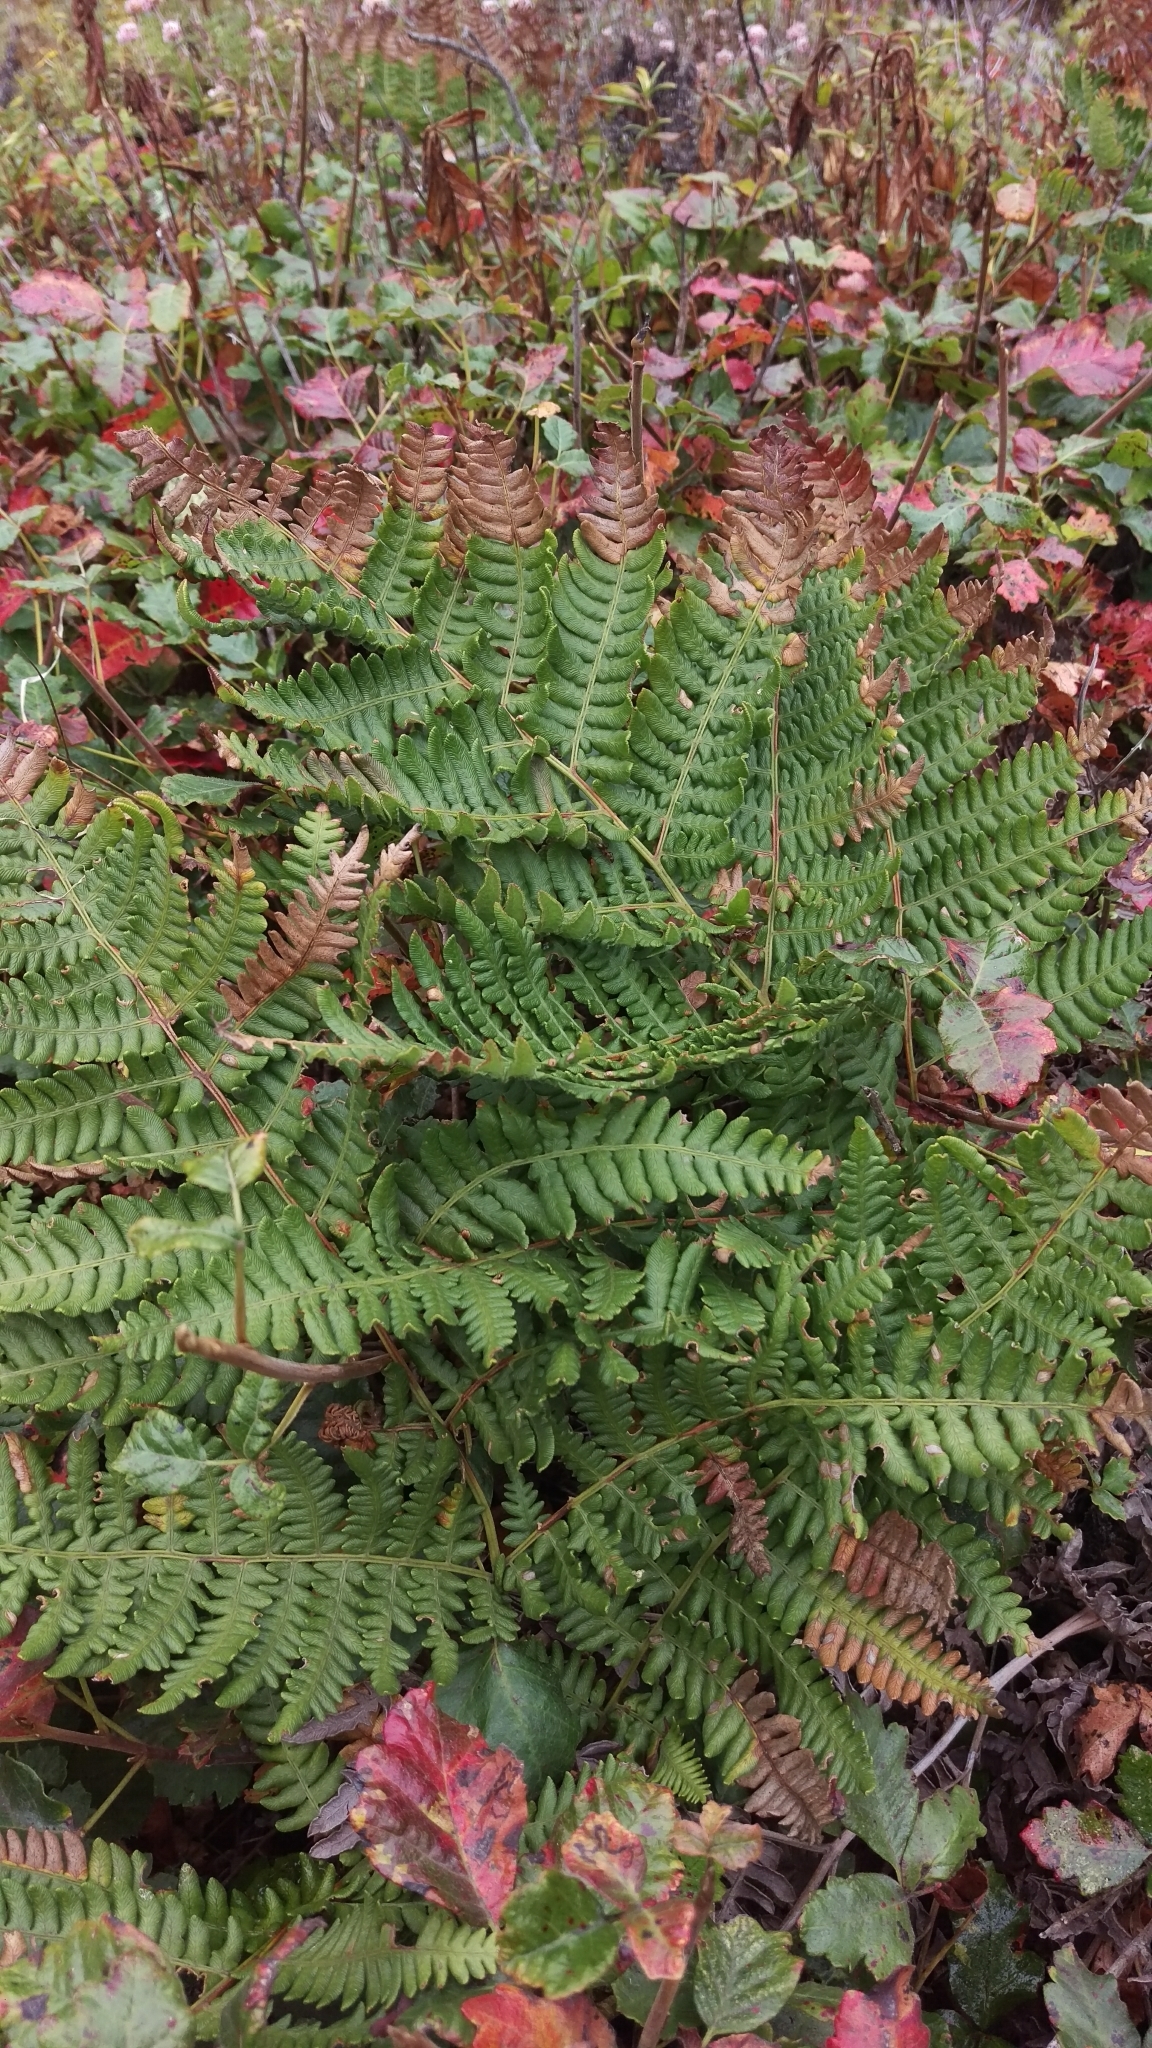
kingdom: Plantae
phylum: Tracheophyta
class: Polypodiopsida
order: Polypodiales
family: Dennstaedtiaceae
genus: Pteridium
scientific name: Pteridium aquilinum
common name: Bracken
